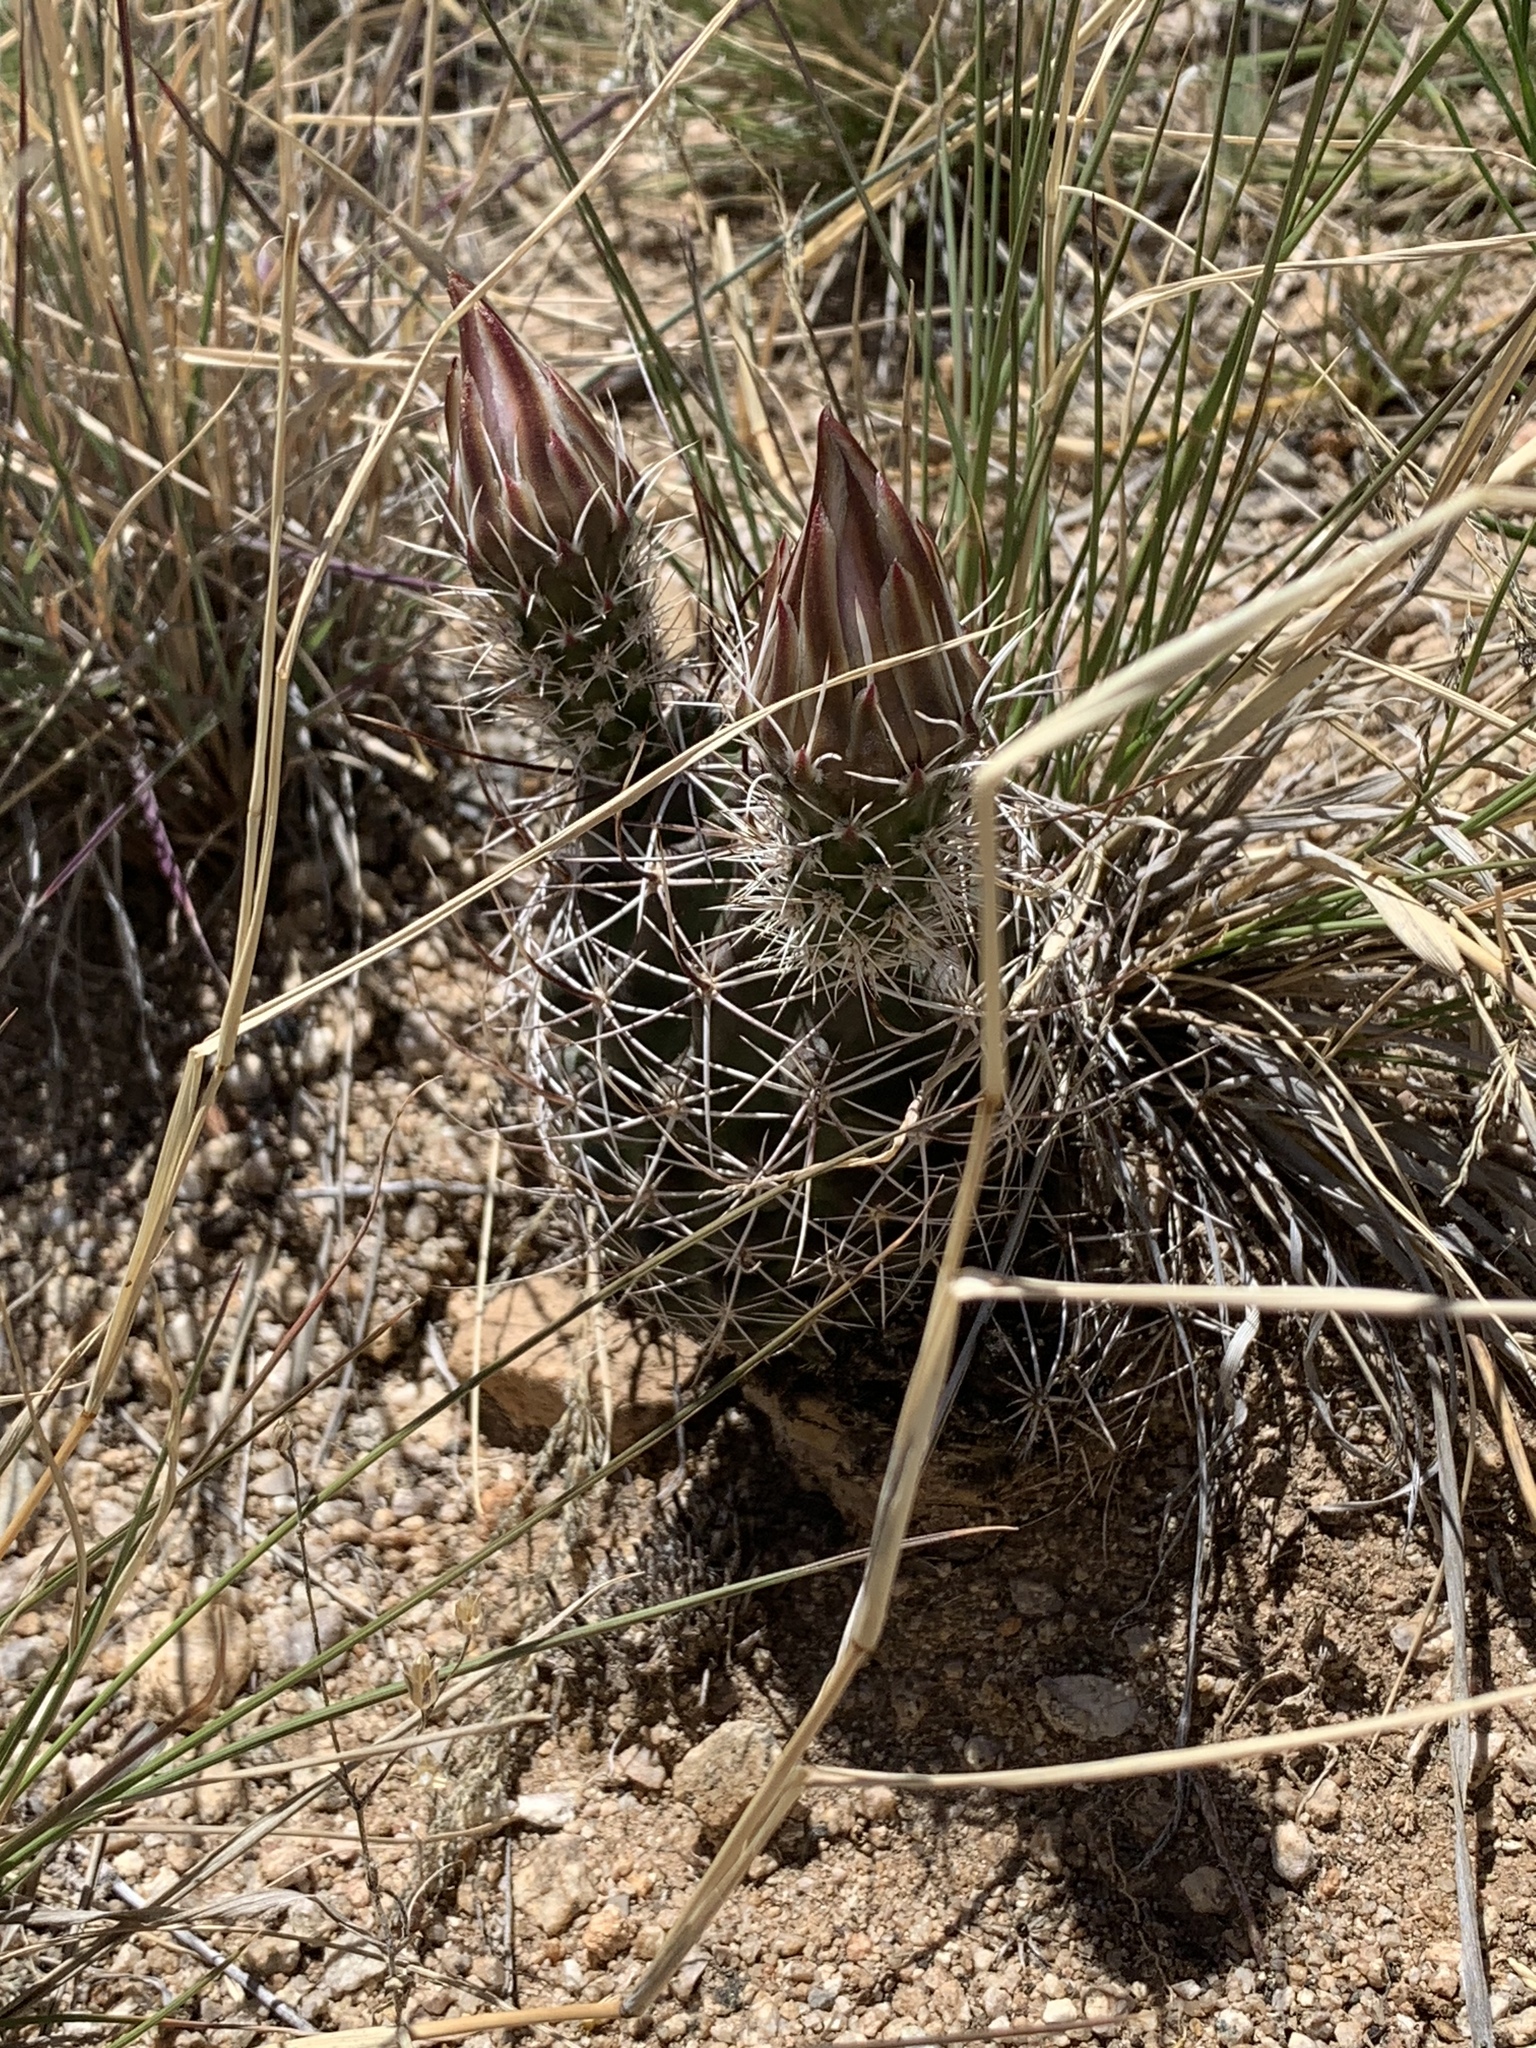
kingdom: Plantae
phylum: Tracheophyta
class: Magnoliopsida
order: Caryophyllales
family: Cactaceae
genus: Echinocereus
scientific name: Echinocereus fendleri
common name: Fendler's hedgehog cactus
